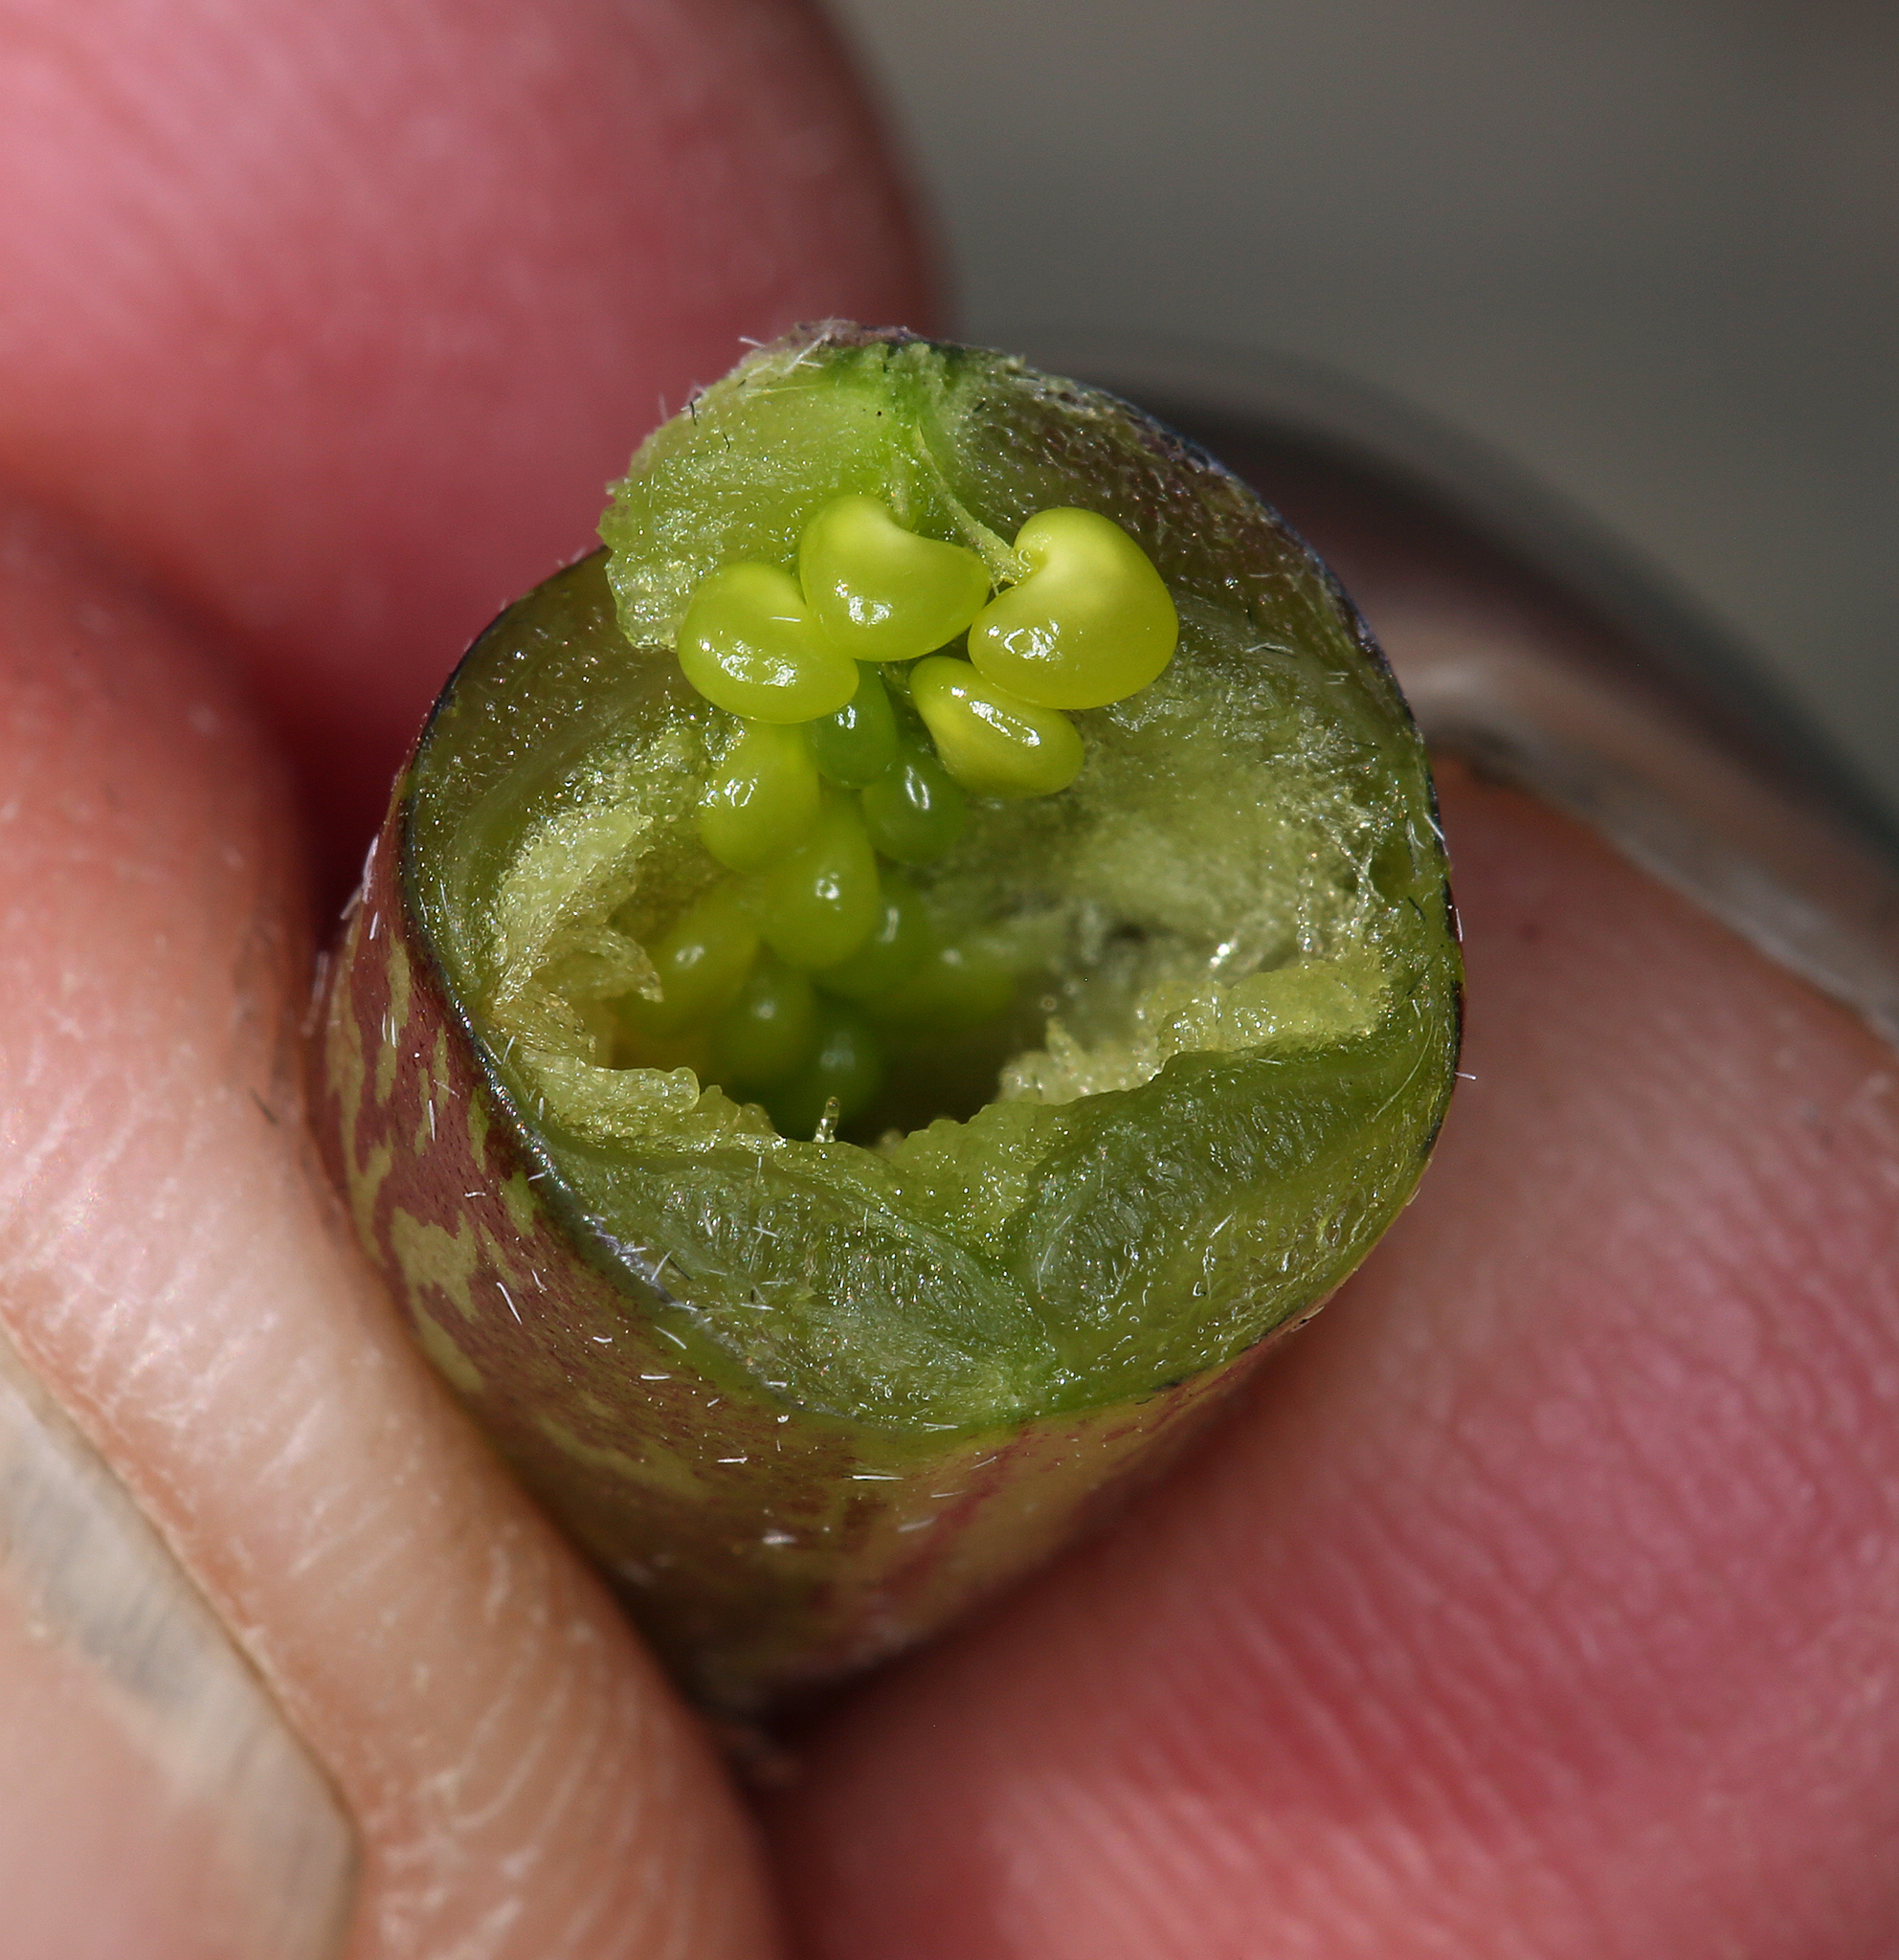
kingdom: Plantae
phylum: Tracheophyta
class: Magnoliopsida
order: Fabales
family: Fabaceae
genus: Astragalus
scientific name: Astragalus casei
